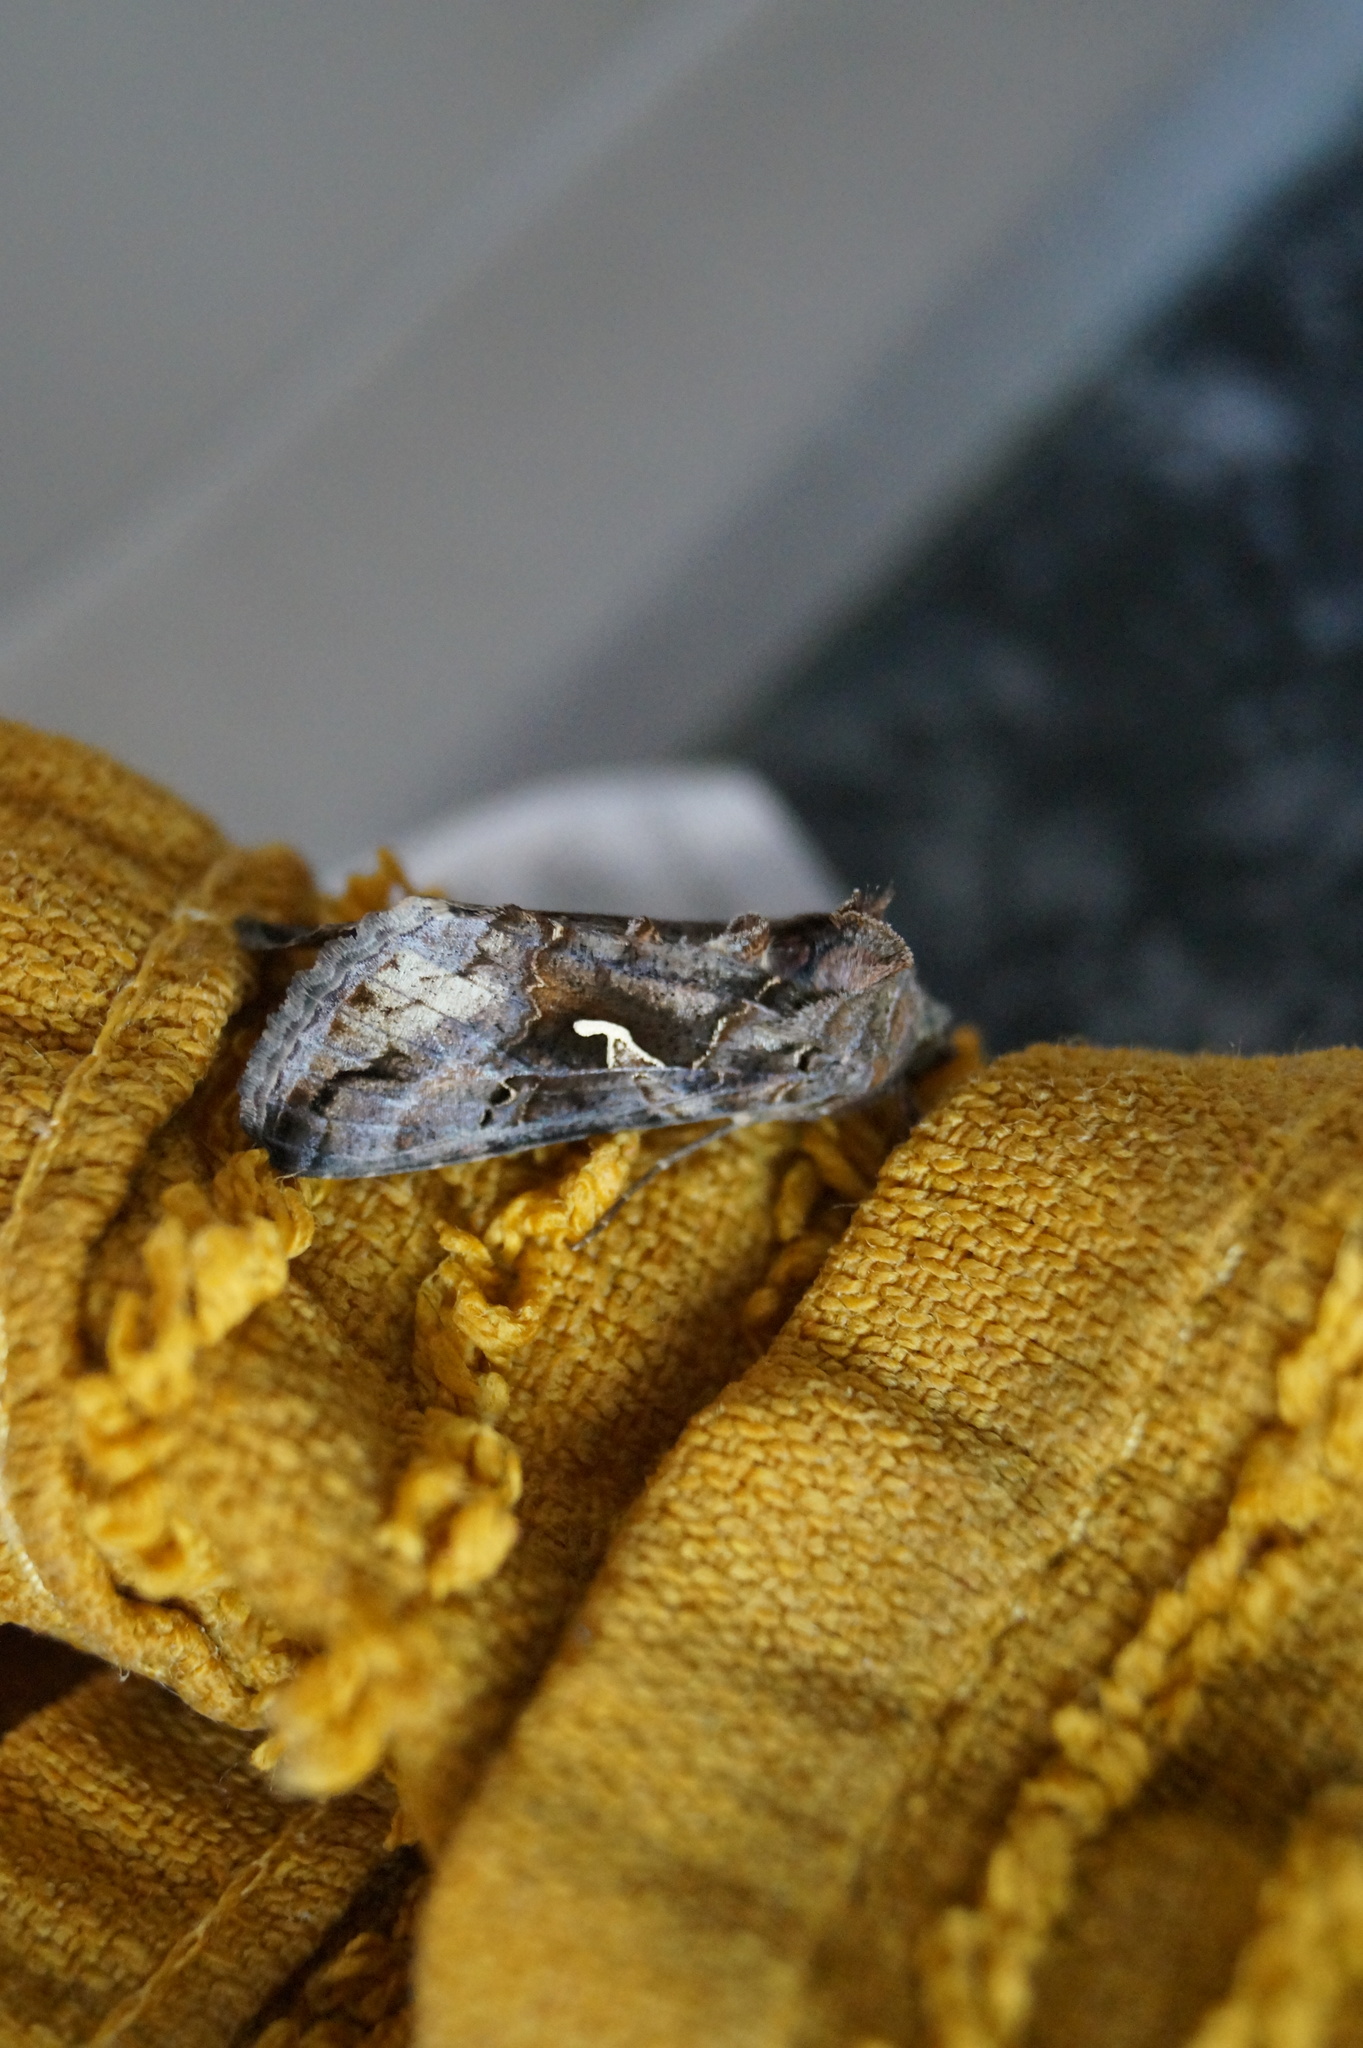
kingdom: Animalia
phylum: Arthropoda
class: Insecta
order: Lepidoptera
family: Noctuidae
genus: Autographa
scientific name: Autographa gamma
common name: Silver y
